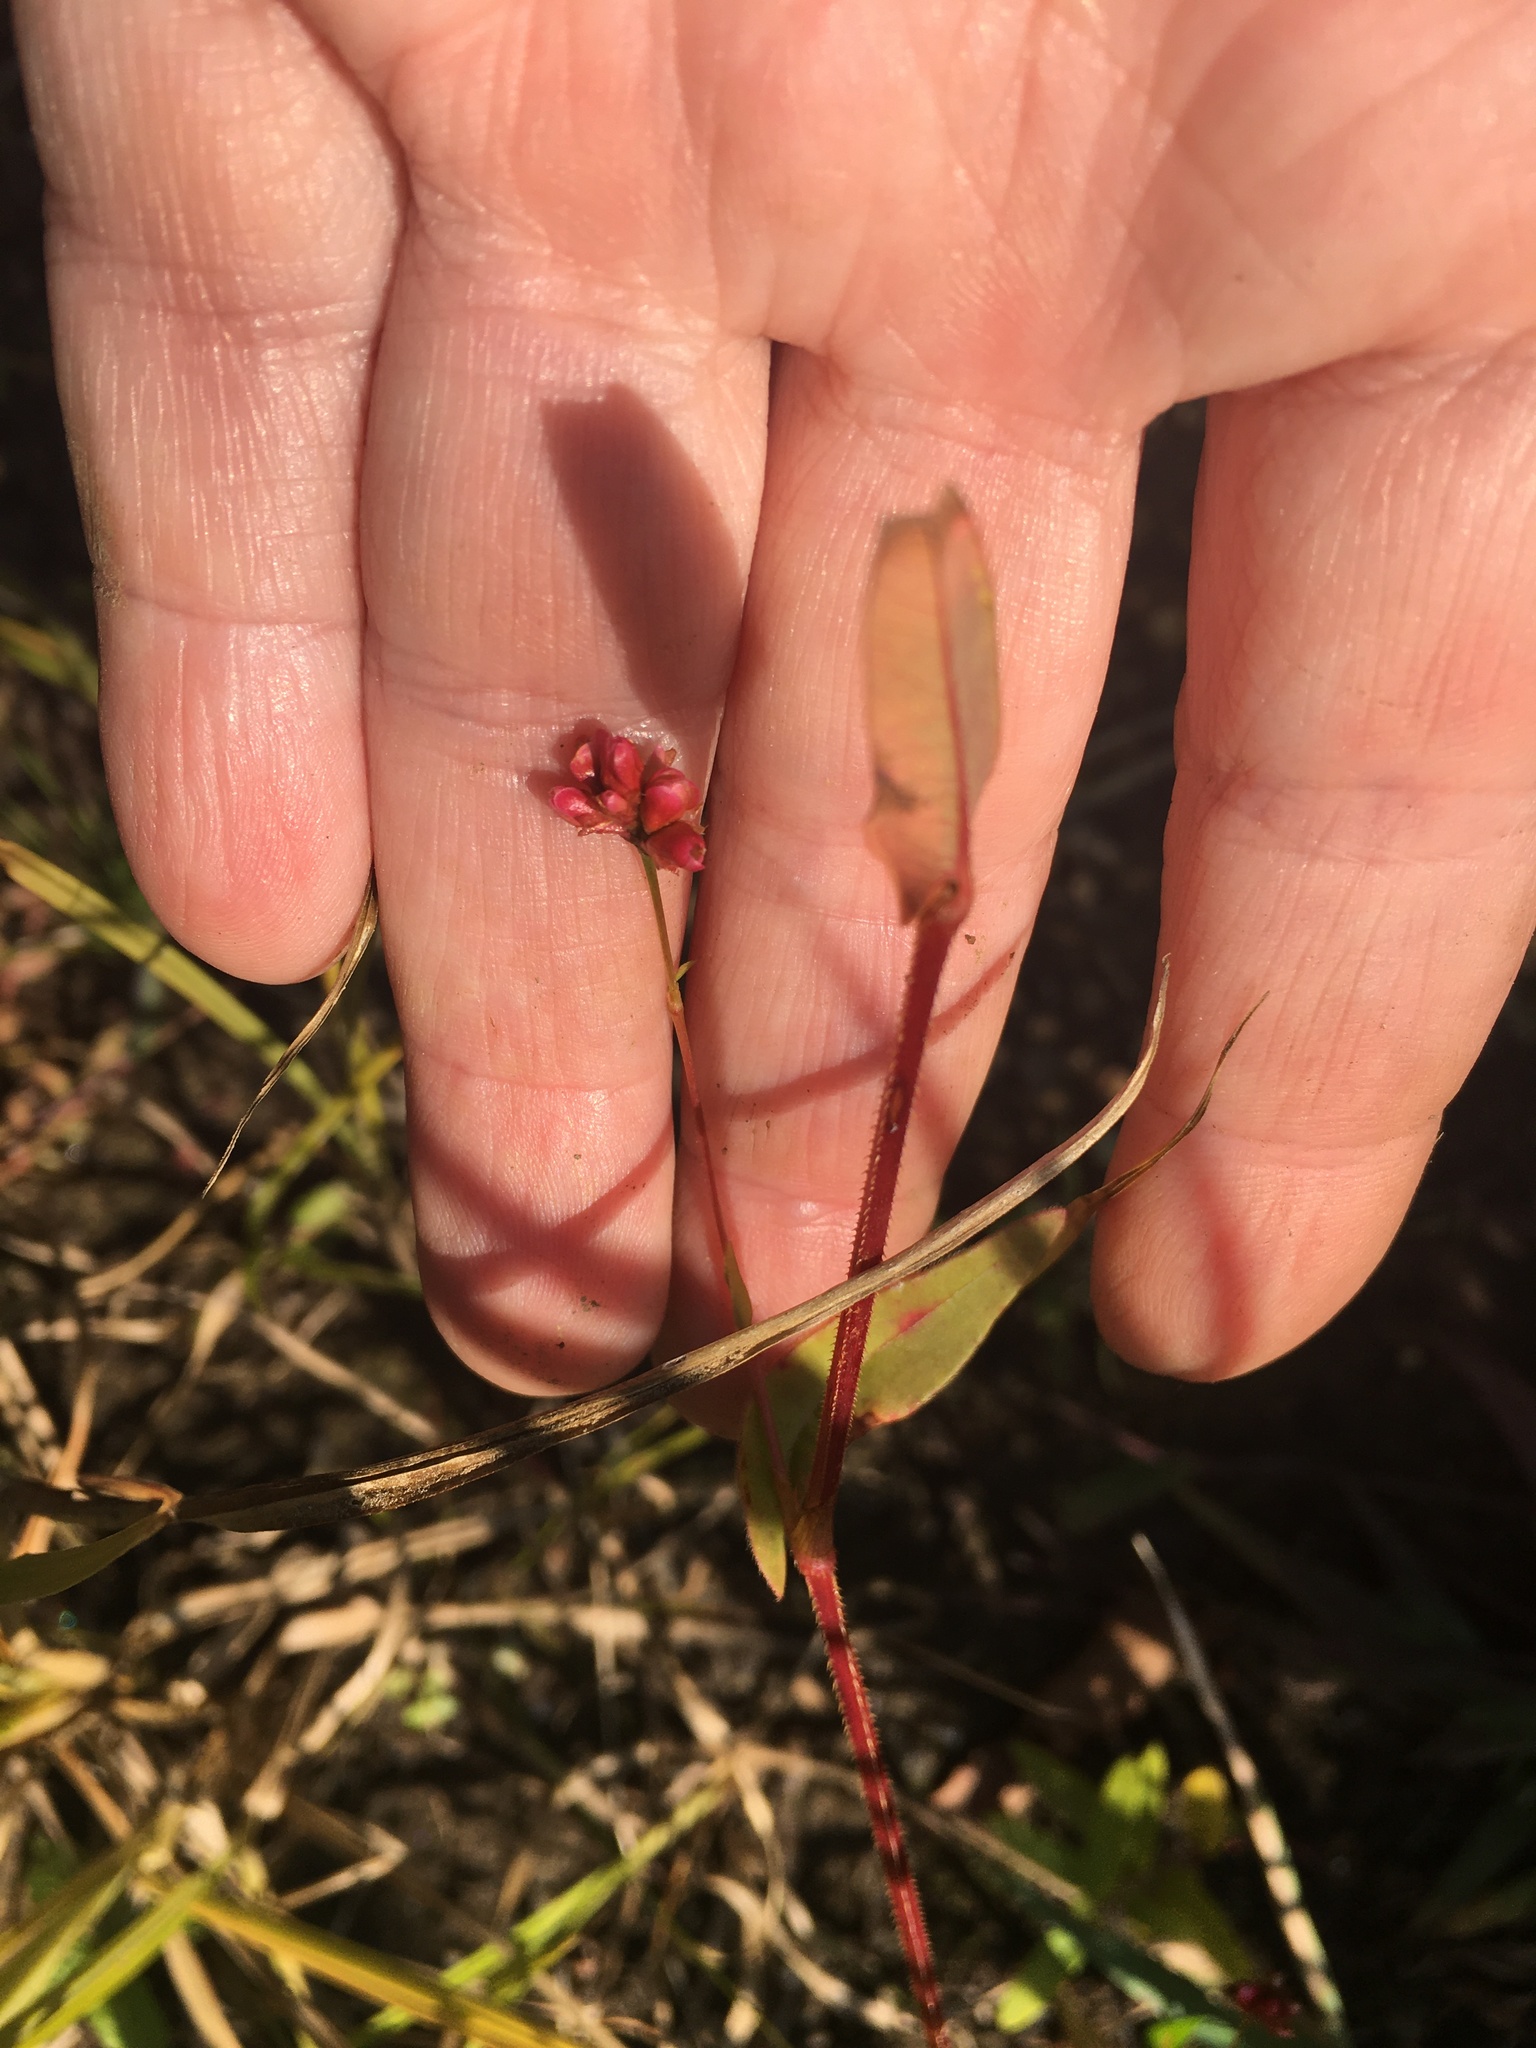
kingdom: Plantae
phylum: Tracheophyta
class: Magnoliopsida
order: Caryophyllales
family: Polygonaceae
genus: Persicaria
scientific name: Persicaria sagittata
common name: American tearthumb
